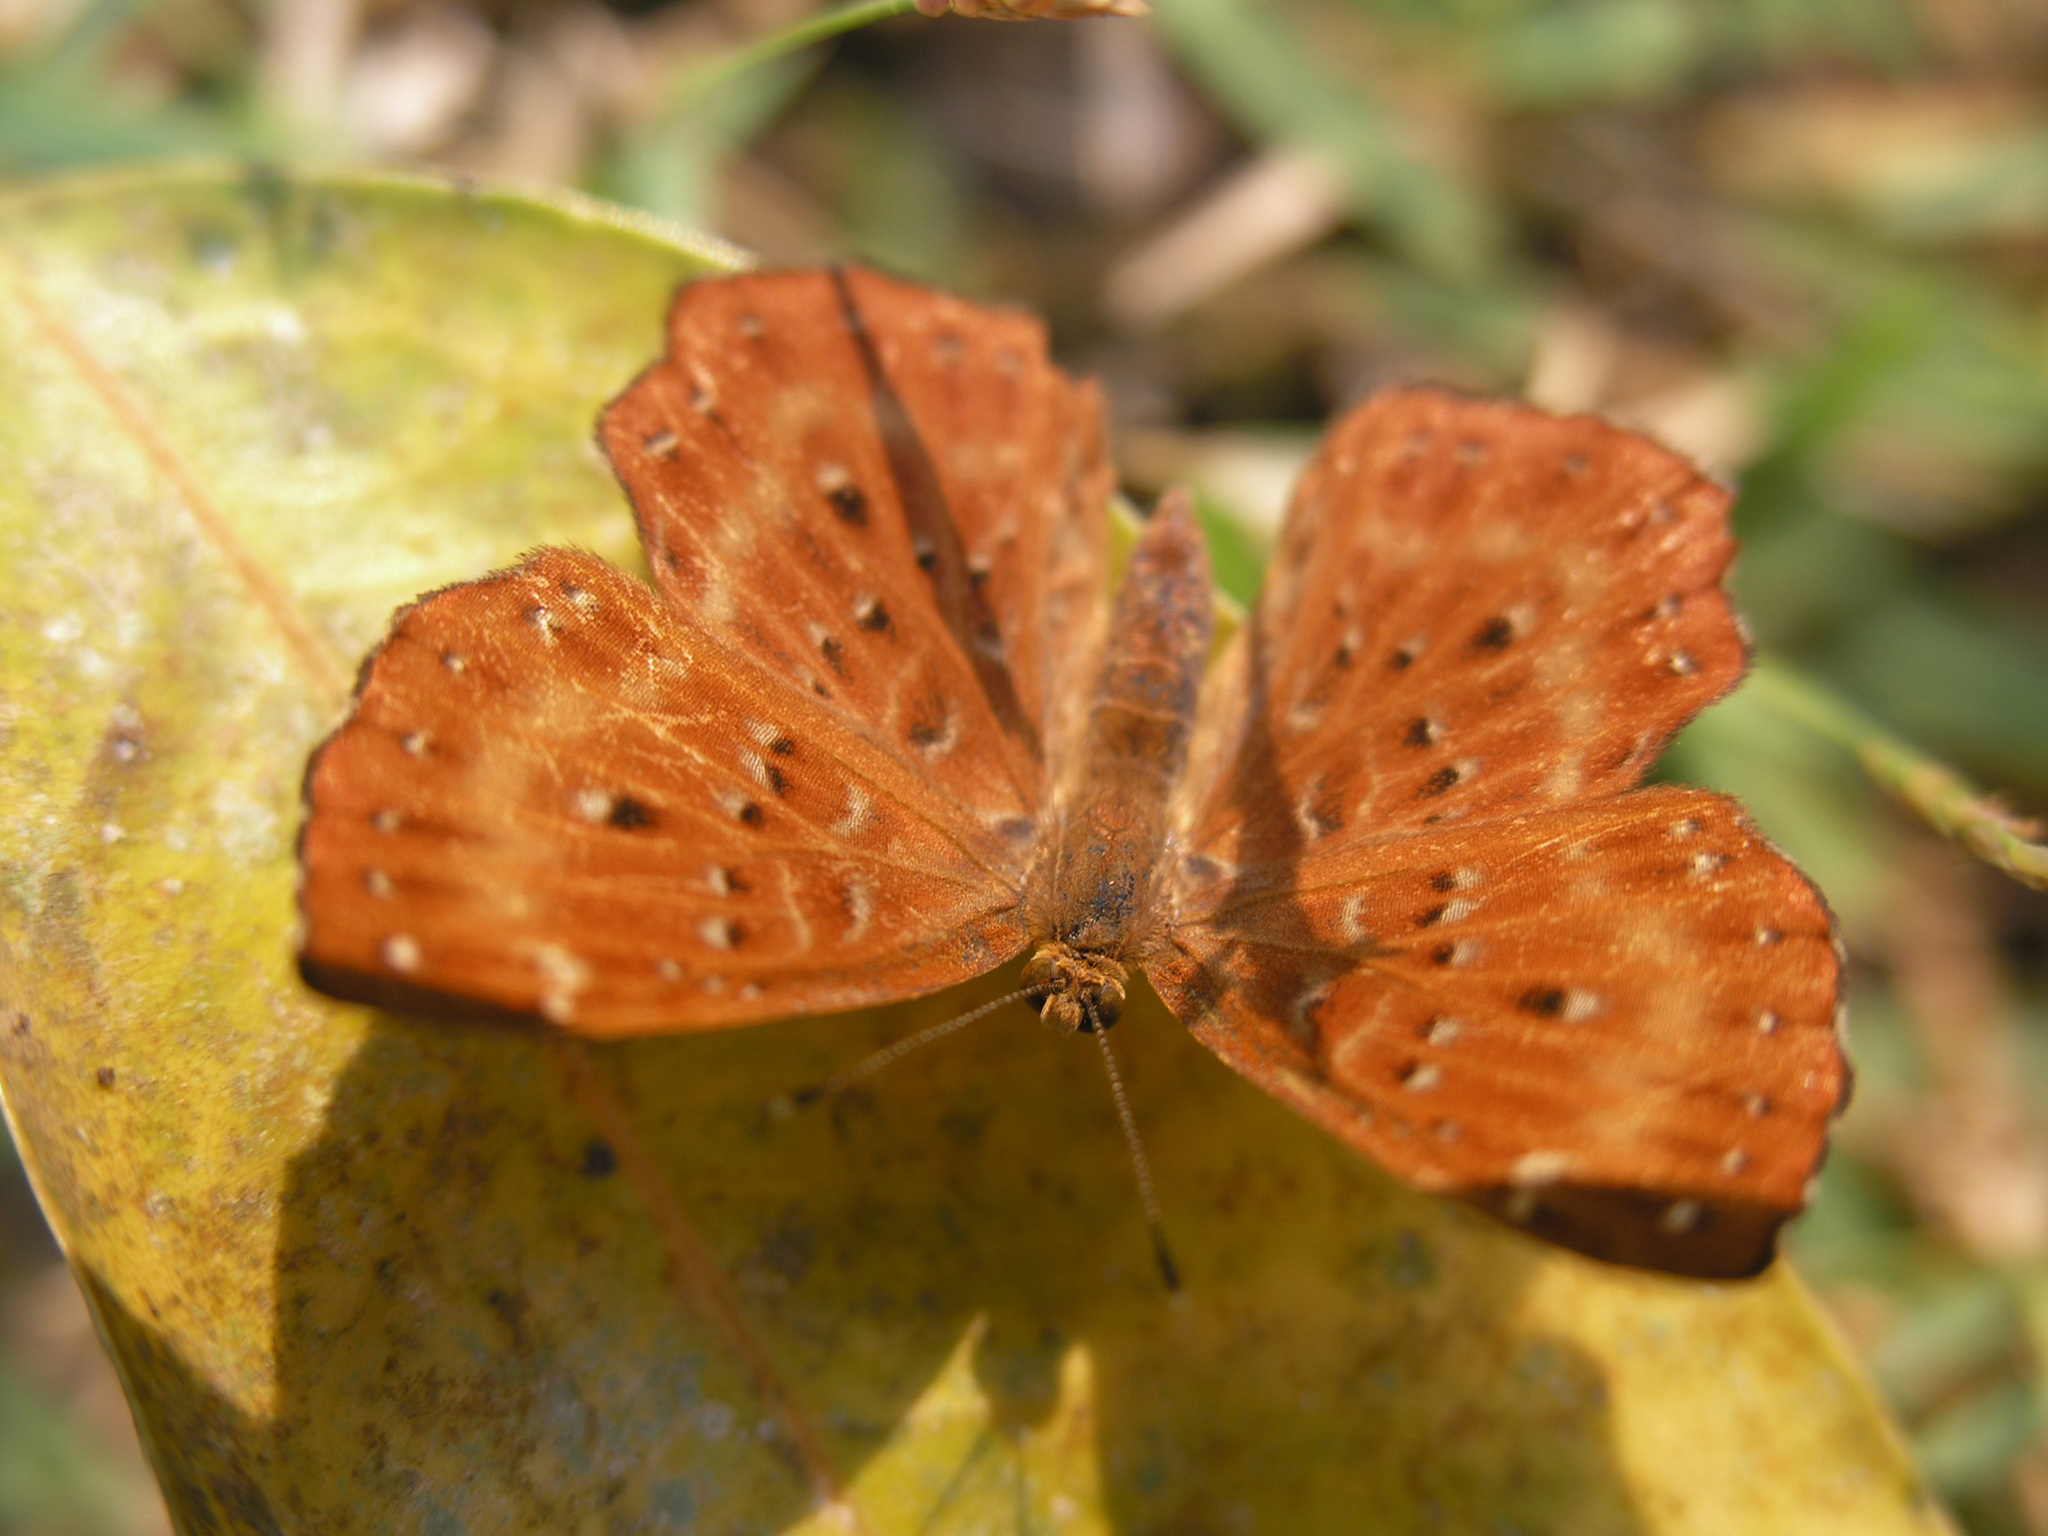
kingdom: Animalia
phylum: Arthropoda
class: Insecta
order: Lepidoptera
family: Riodinidae
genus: Zemeros
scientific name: Zemeros flegyas
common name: Punchinello
